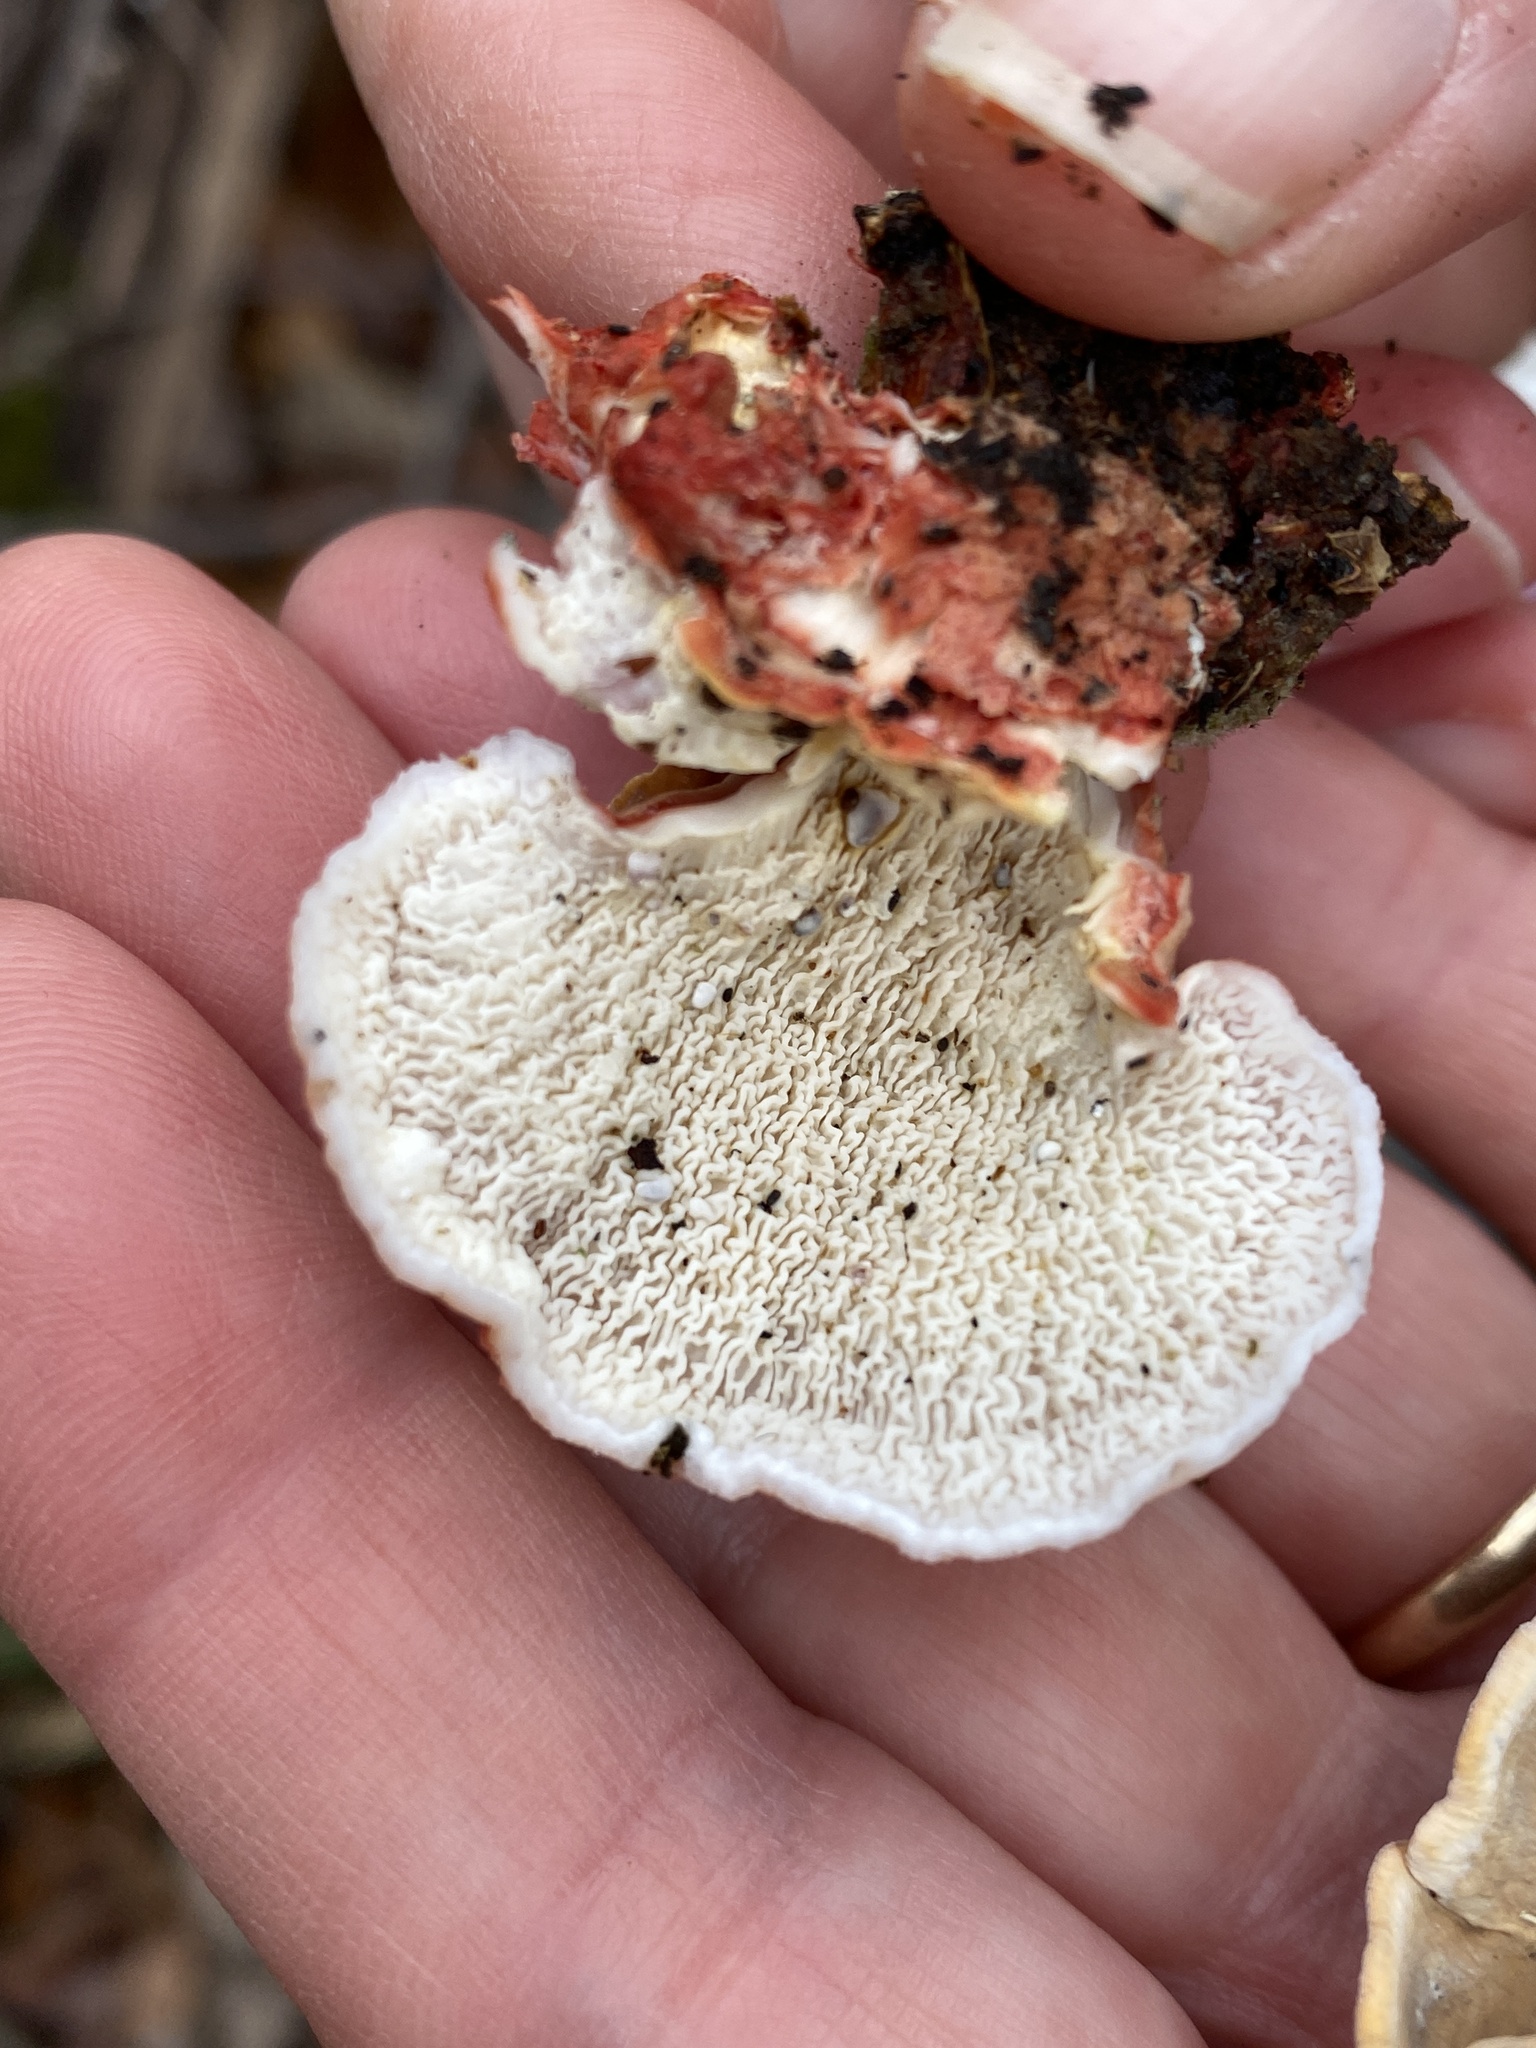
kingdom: Fungi
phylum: Basidiomycota
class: Agaricomycetes
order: Polyporales
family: Irpicaceae
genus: Byssomerulius
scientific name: Byssomerulius incarnatus
